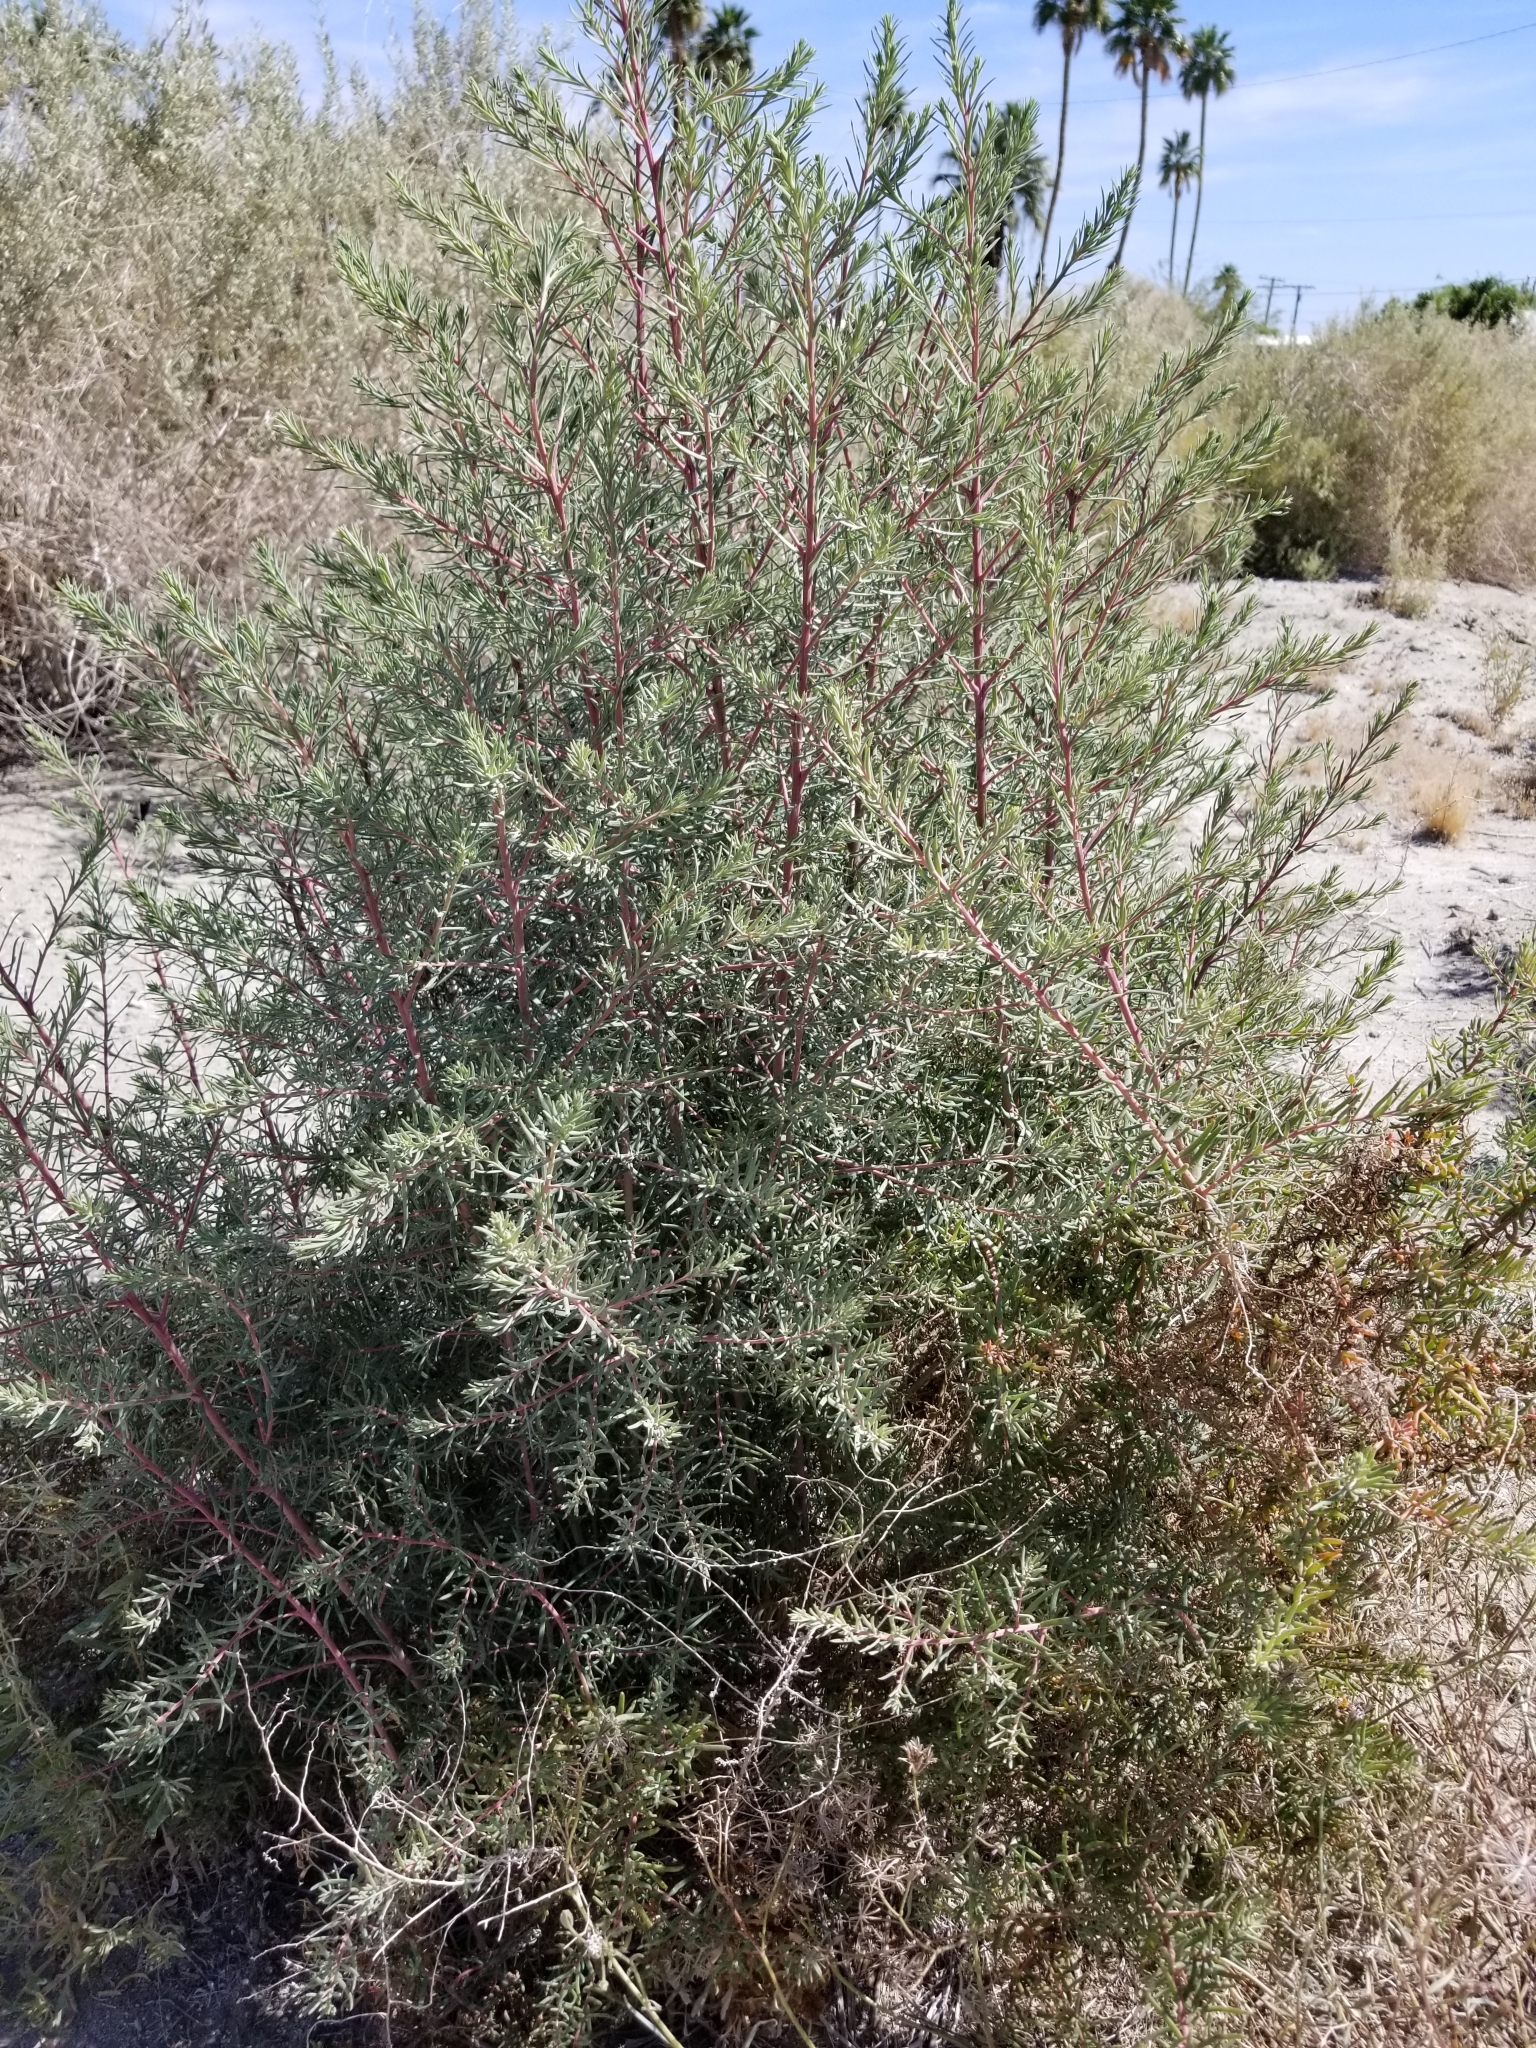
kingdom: Plantae
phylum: Tracheophyta
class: Magnoliopsida
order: Caryophyllales
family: Amaranthaceae
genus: Suaeda
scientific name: Suaeda nigra
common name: Bush seepweed
